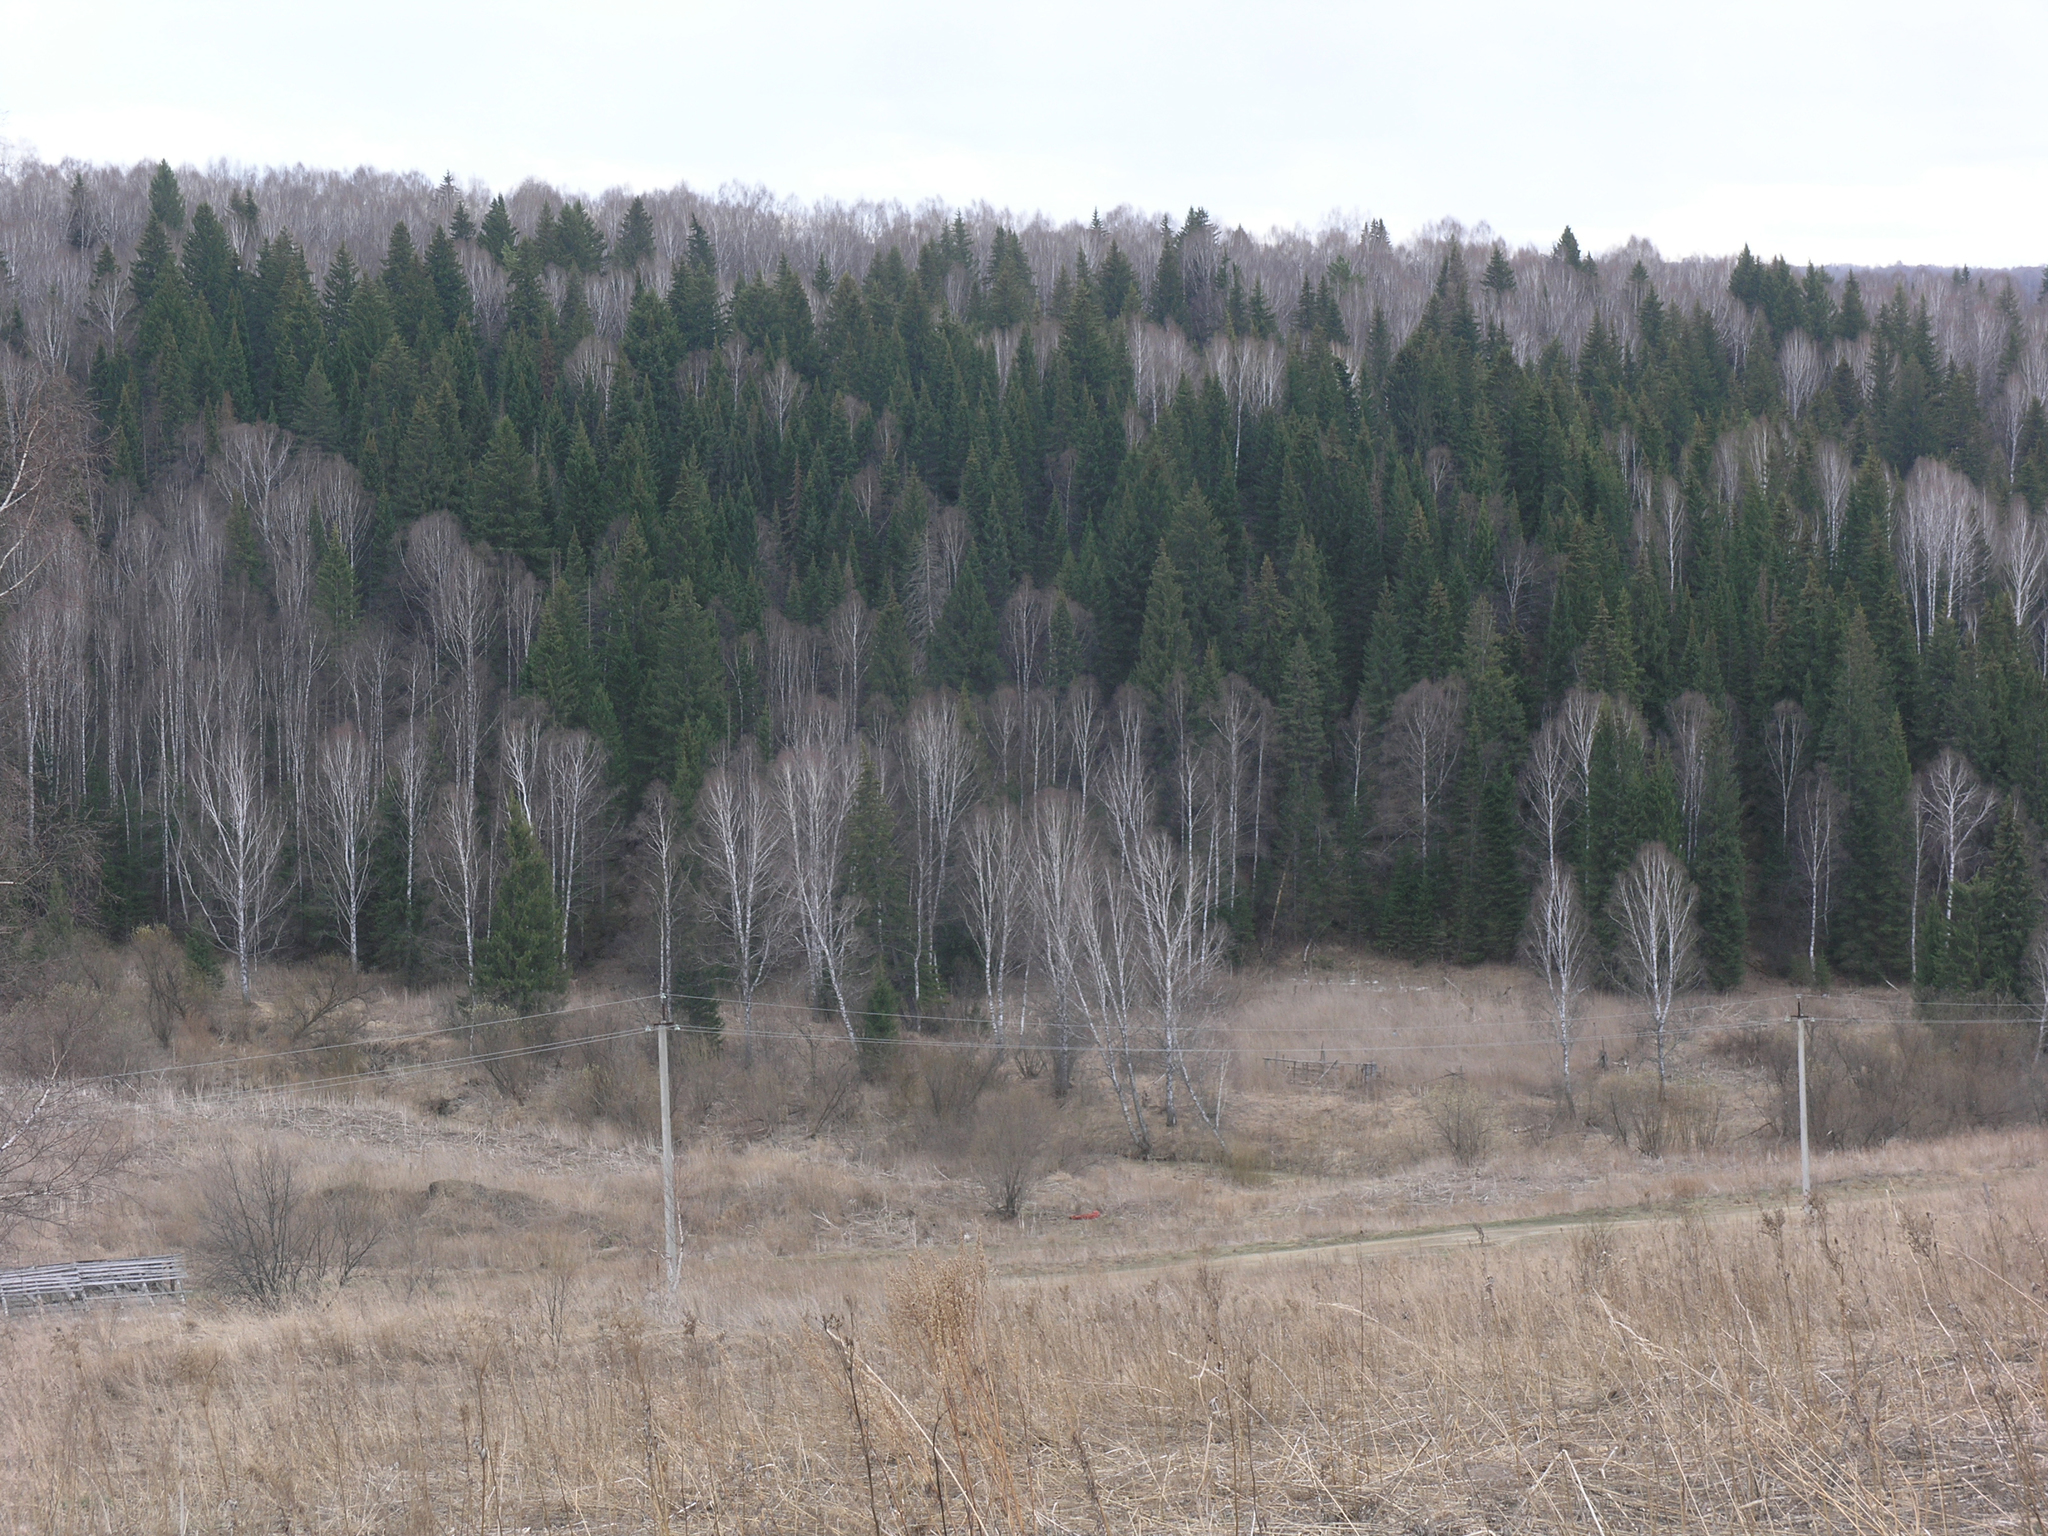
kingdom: Plantae
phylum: Tracheophyta
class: Magnoliopsida
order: Fagales
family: Betulaceae
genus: Betula
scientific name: Betula pendula
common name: Silver birch
